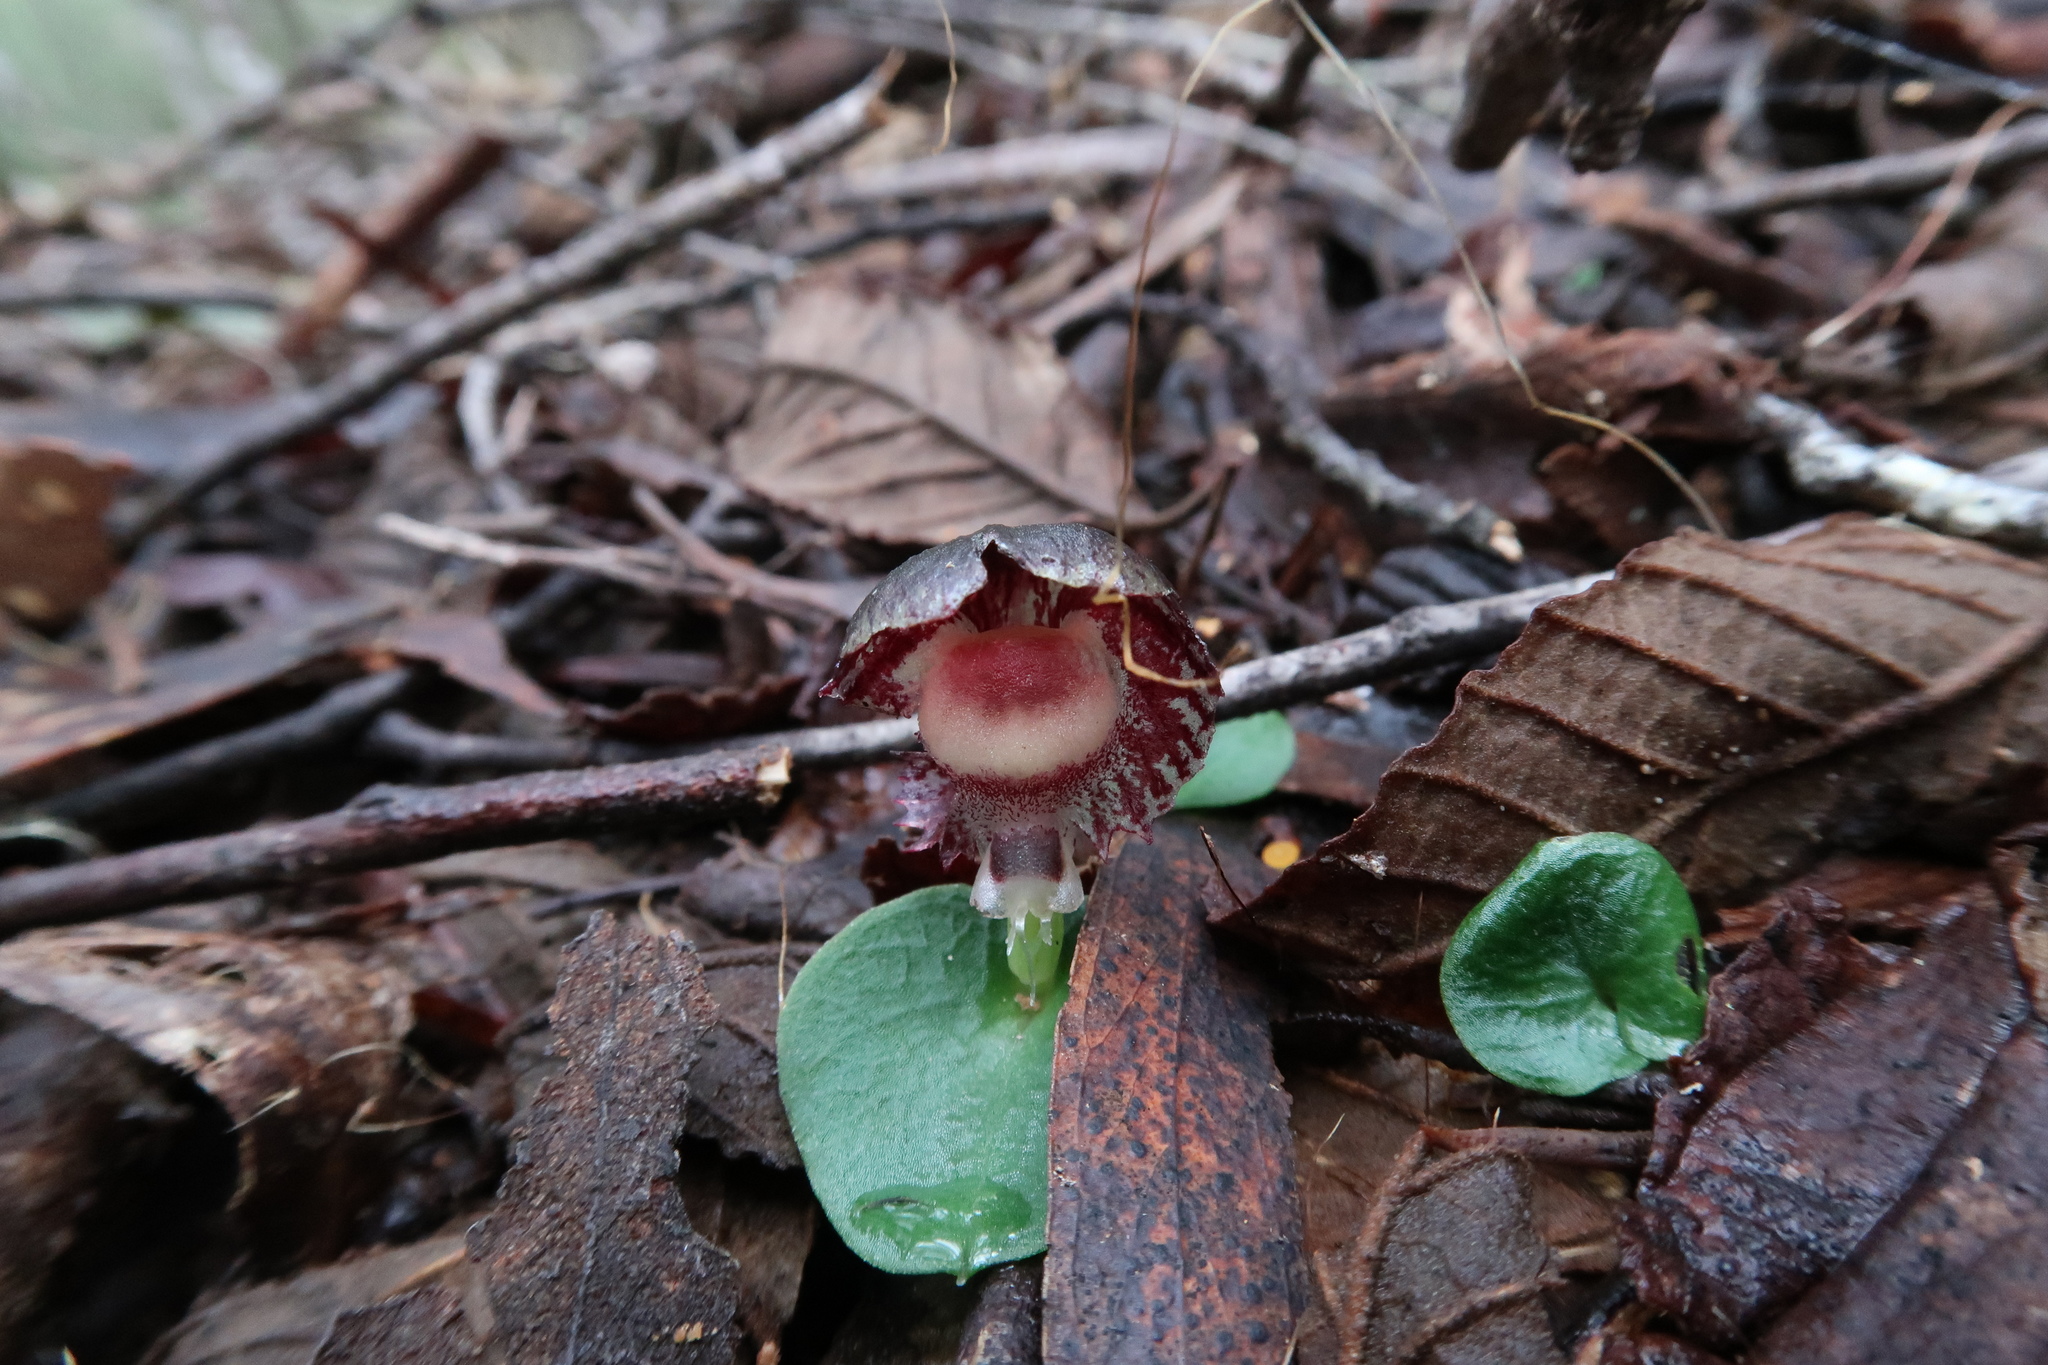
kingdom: Plantae
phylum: Tracheophyta
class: Liliopsida
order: Asparagales
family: Orchidaceae
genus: Corybas
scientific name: Corybas diemenicus
